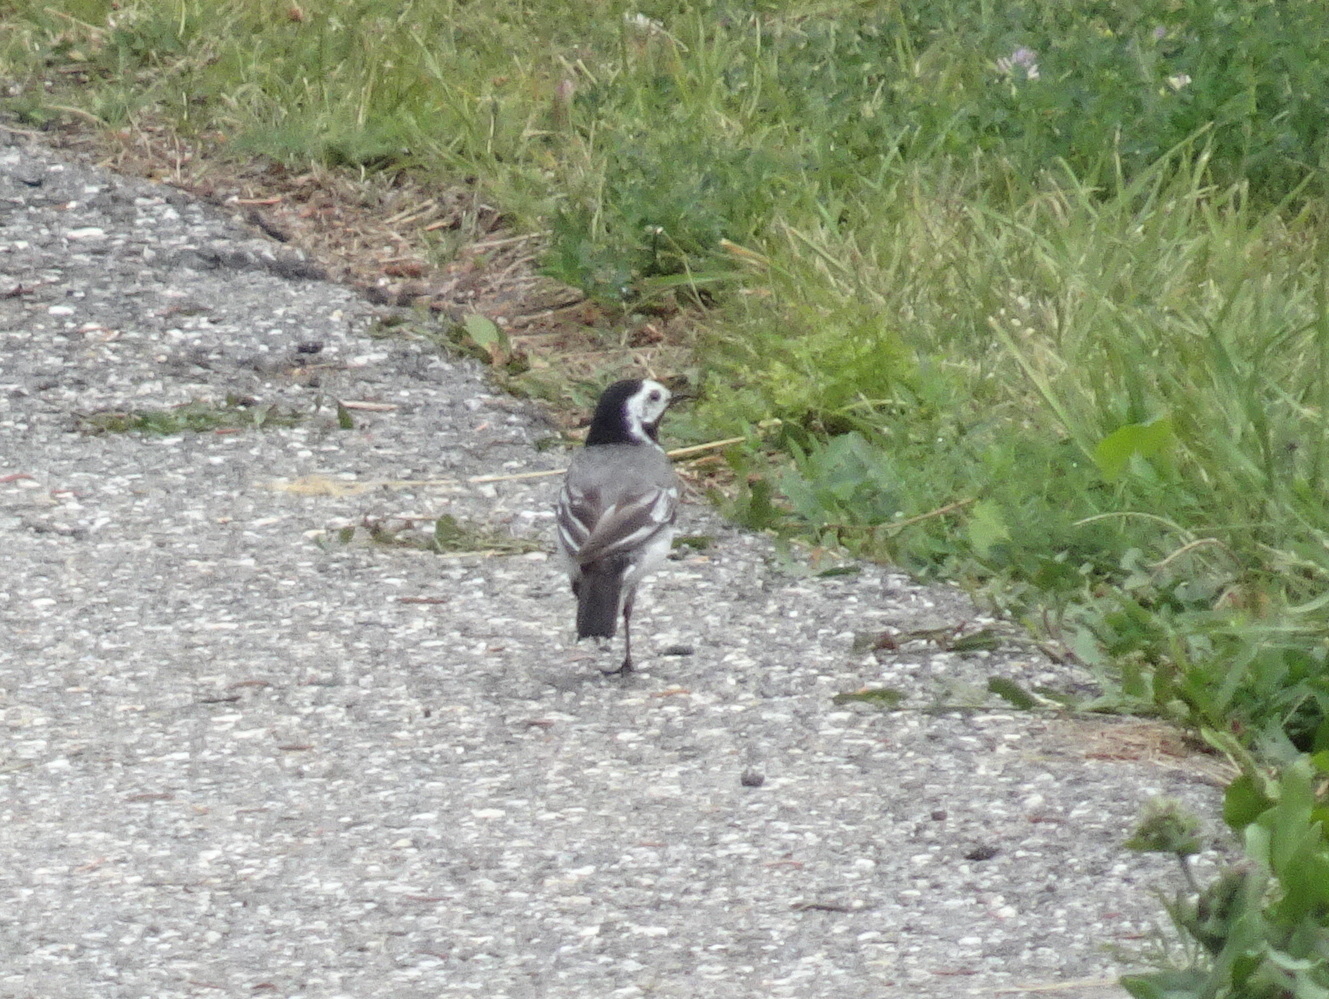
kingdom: Animalia
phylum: Chordata
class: Aves
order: Passeriformes
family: Motacillidae
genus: Motacilla
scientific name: Motacilla alba
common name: White wagtail
